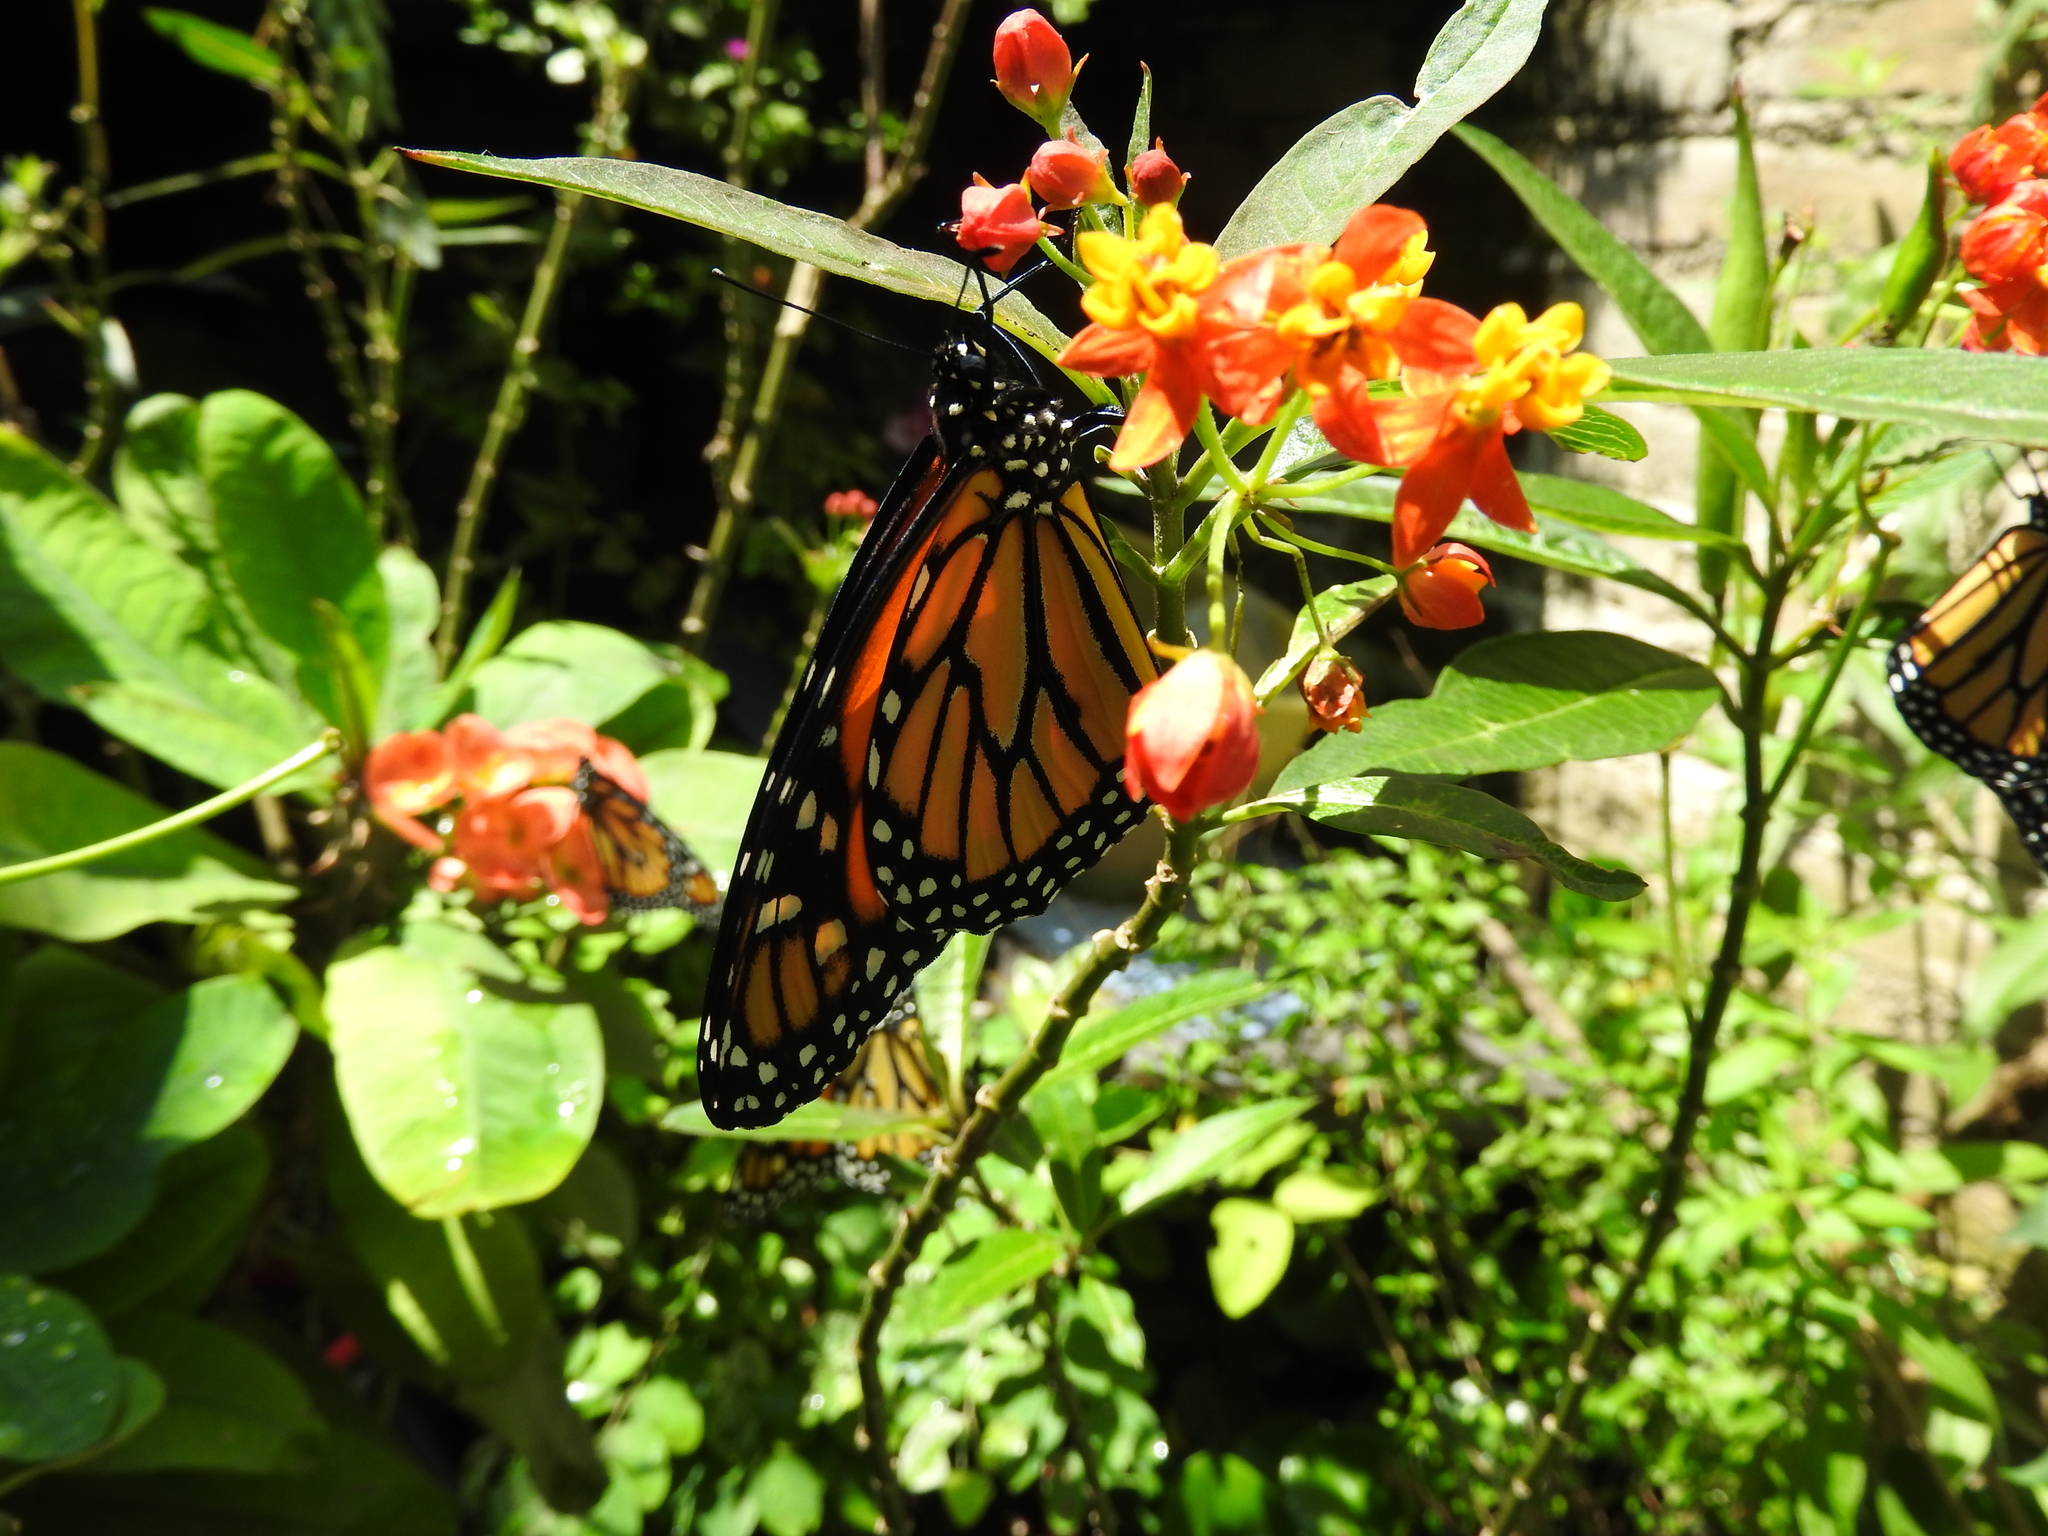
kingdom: Animalia
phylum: Arthropoda
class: Insecta
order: Lepidoptera
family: Nymphalidae
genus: Danaus
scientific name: Danaus plexippus
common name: Monarch
